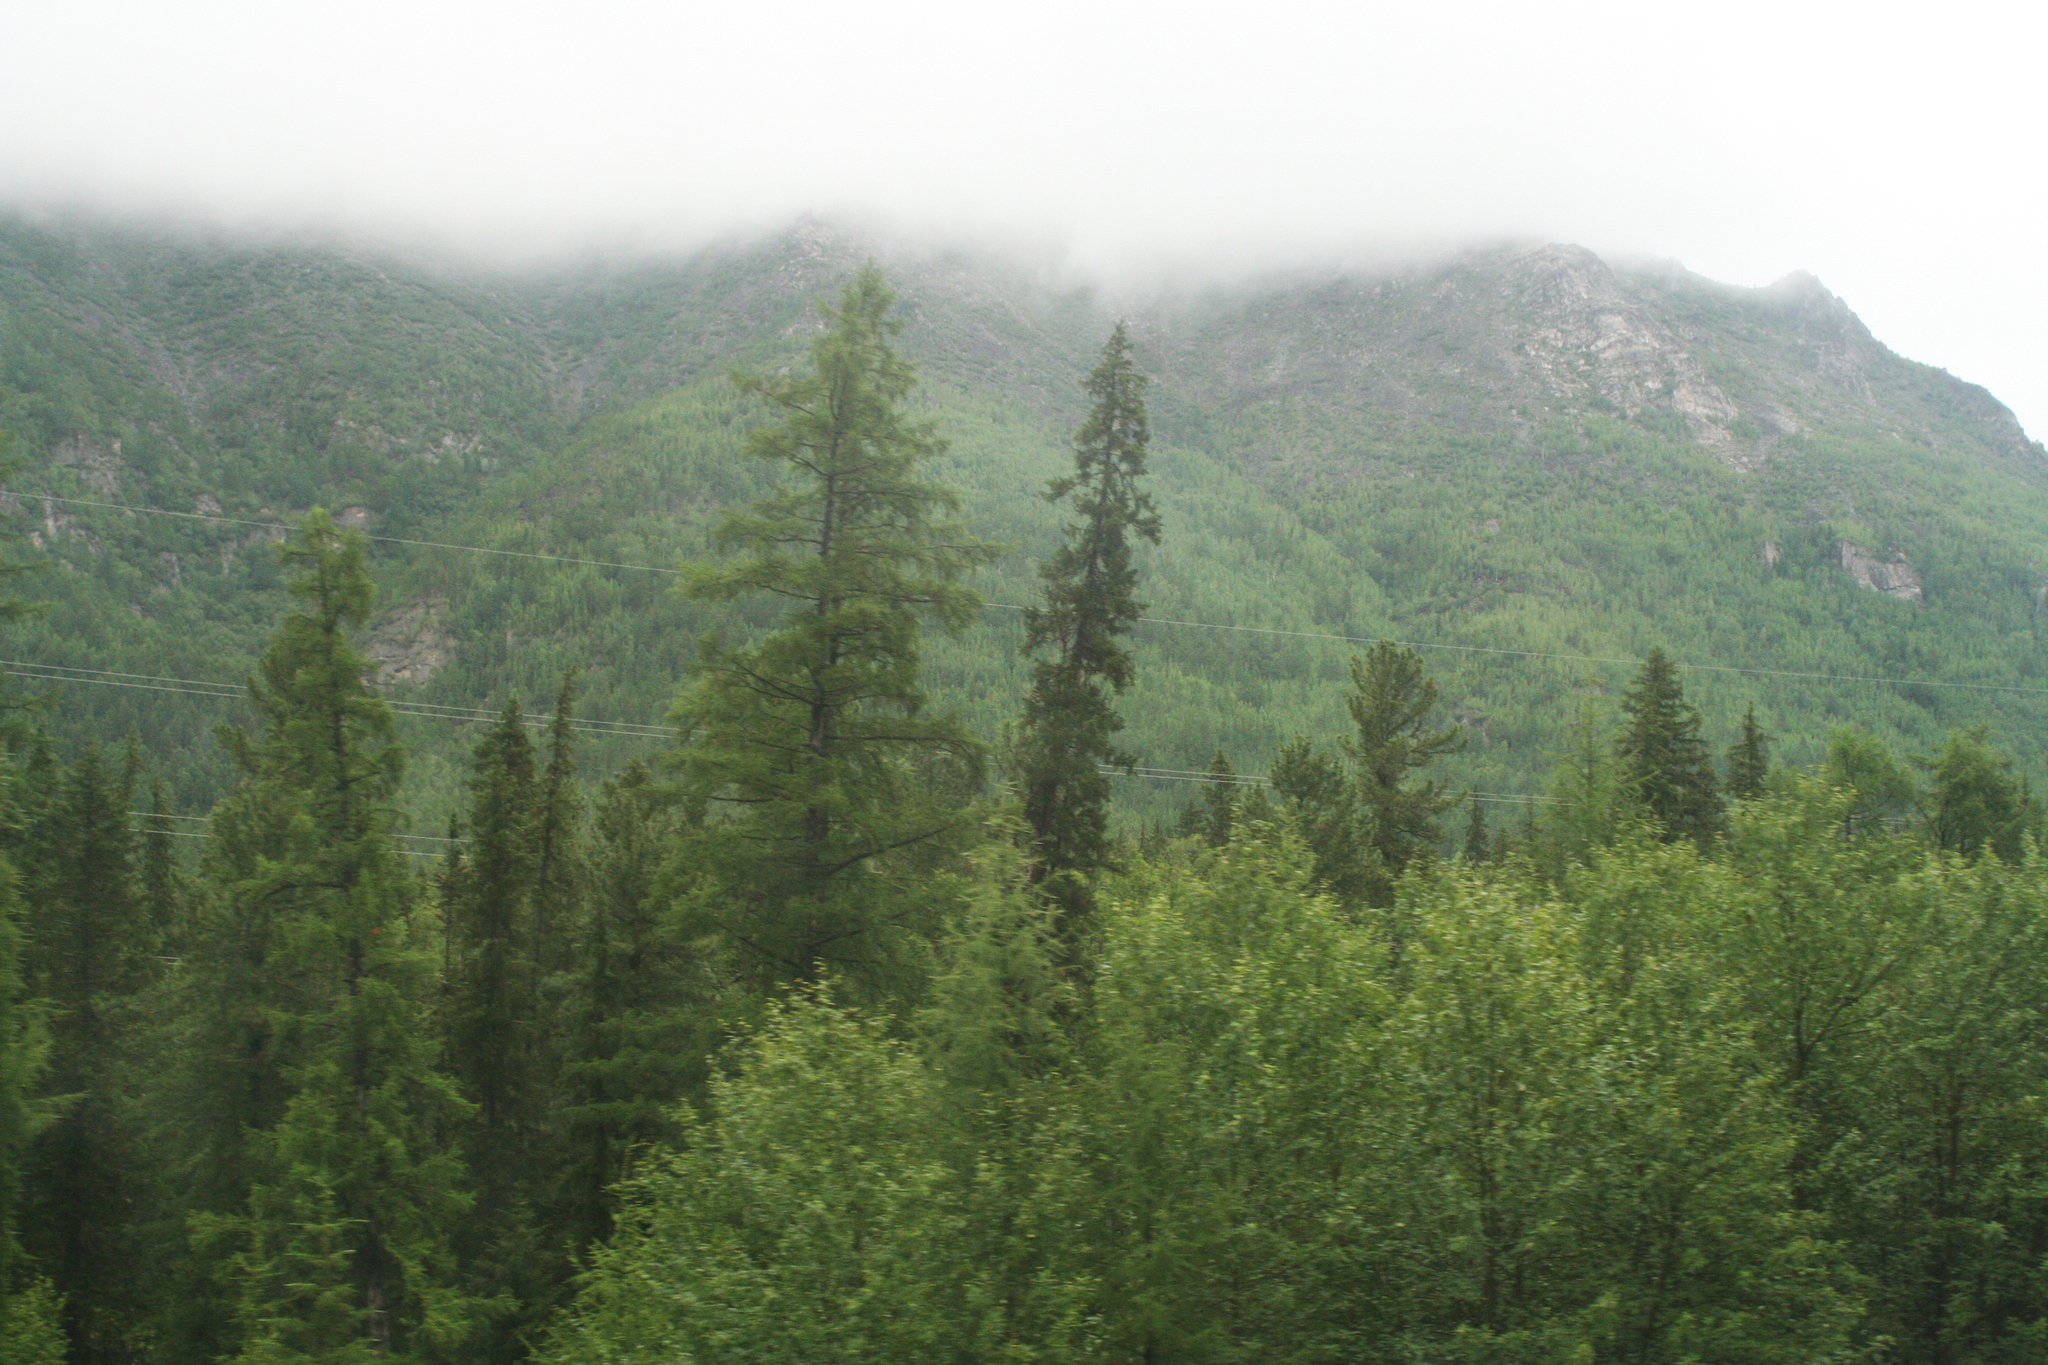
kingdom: Plantae
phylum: Tracheophyta
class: Pinopsida
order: Pinales
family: Pinaceae
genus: Larix
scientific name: Larix gmelinii
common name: Dahurian larch
